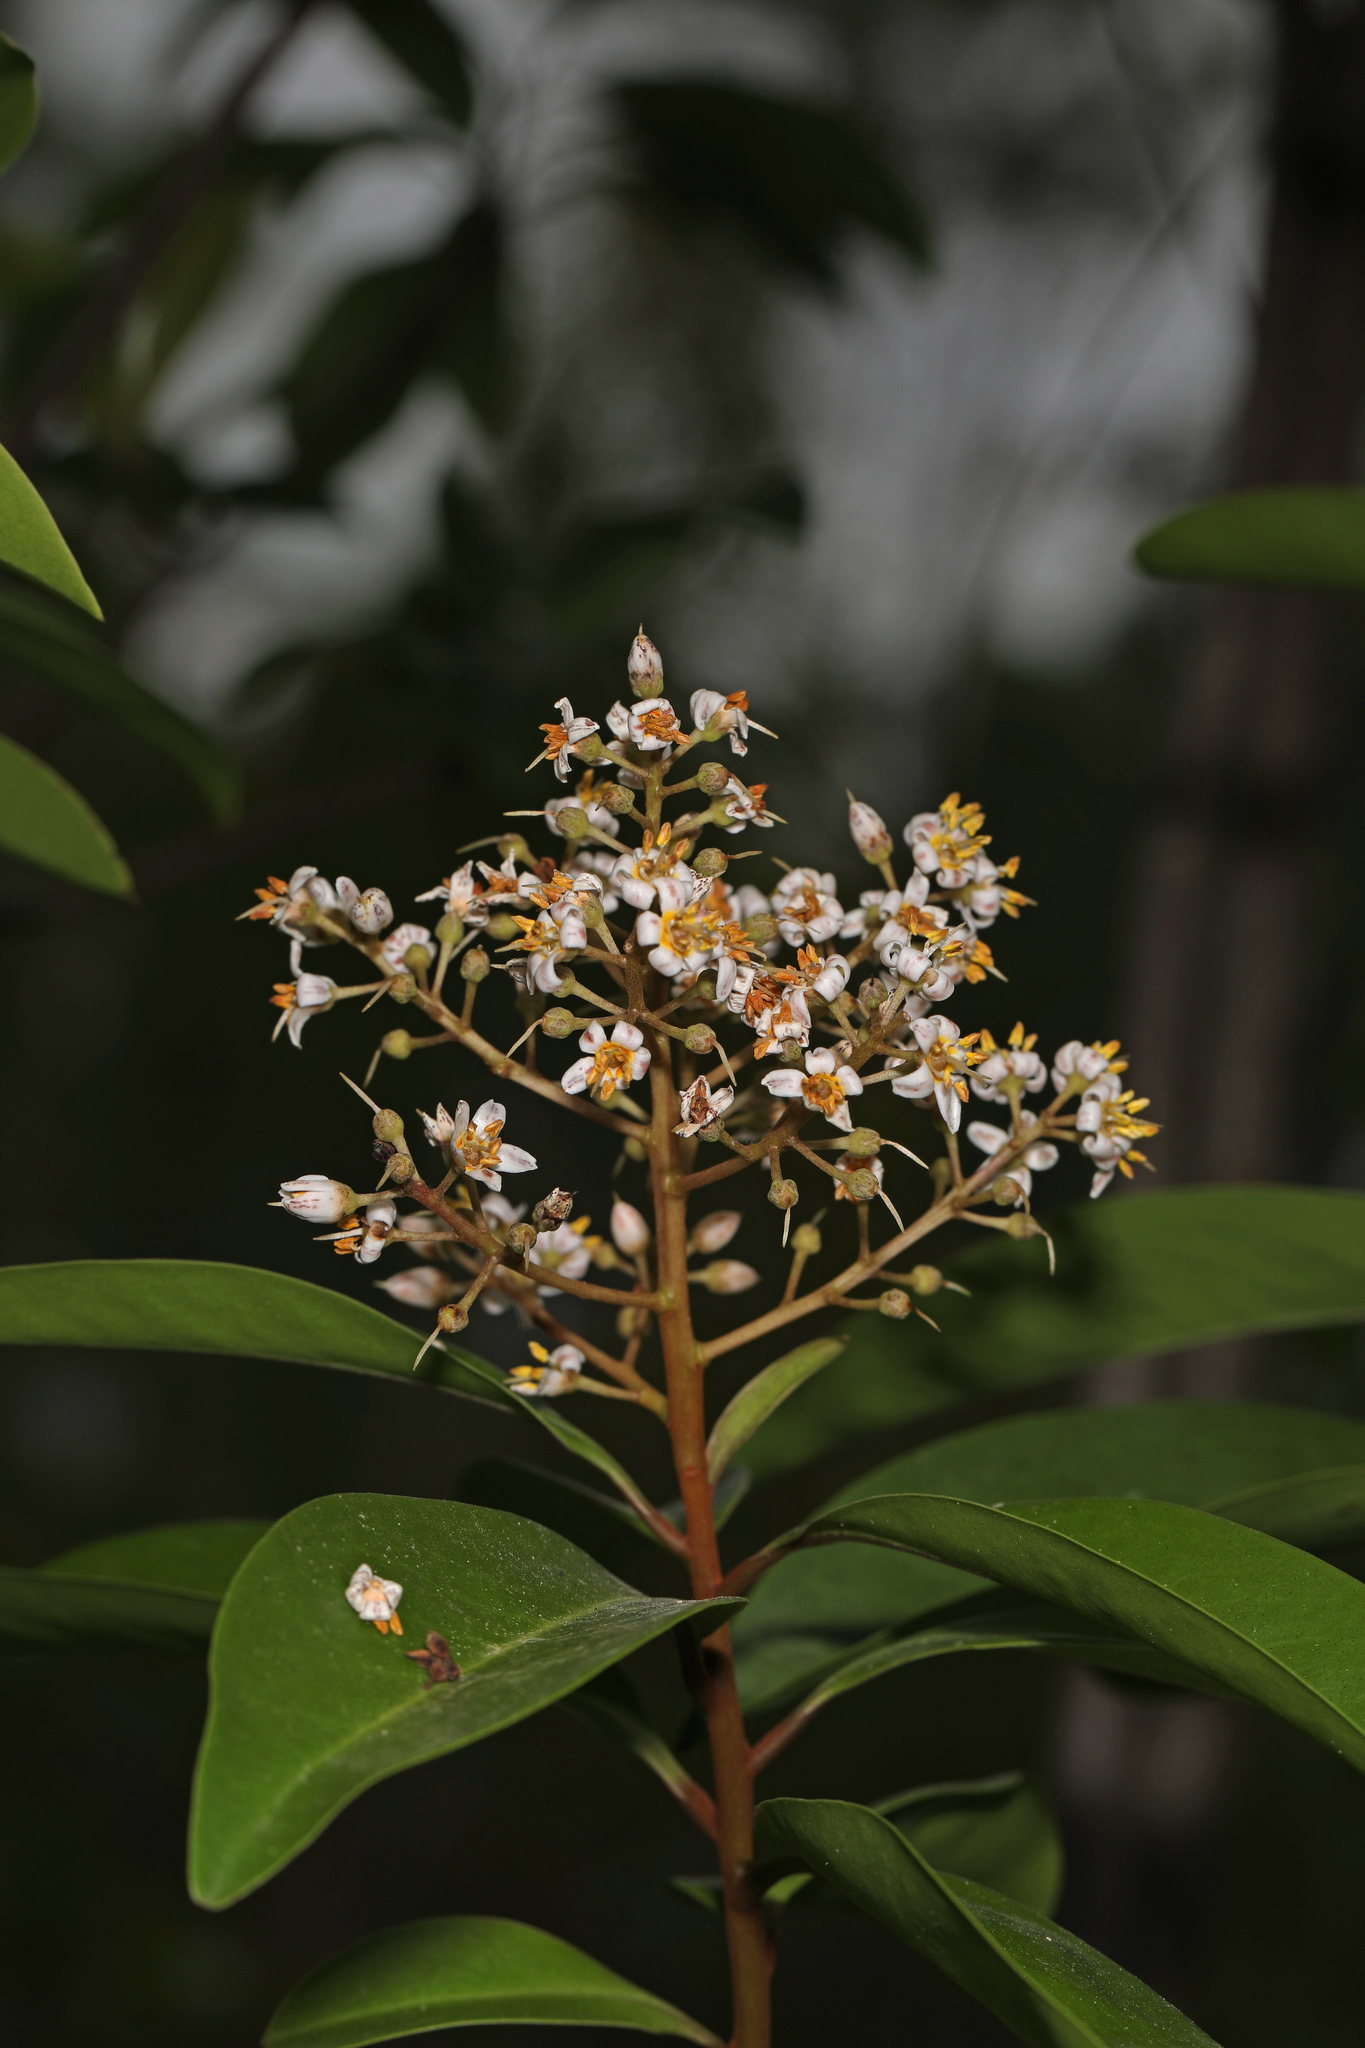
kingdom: Plantae
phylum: Tracheophyta
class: Magnoliopsida
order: Ericales
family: Primulaceae
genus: Ardisia
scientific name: Ardisia escallonioides
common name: Island marlberry
